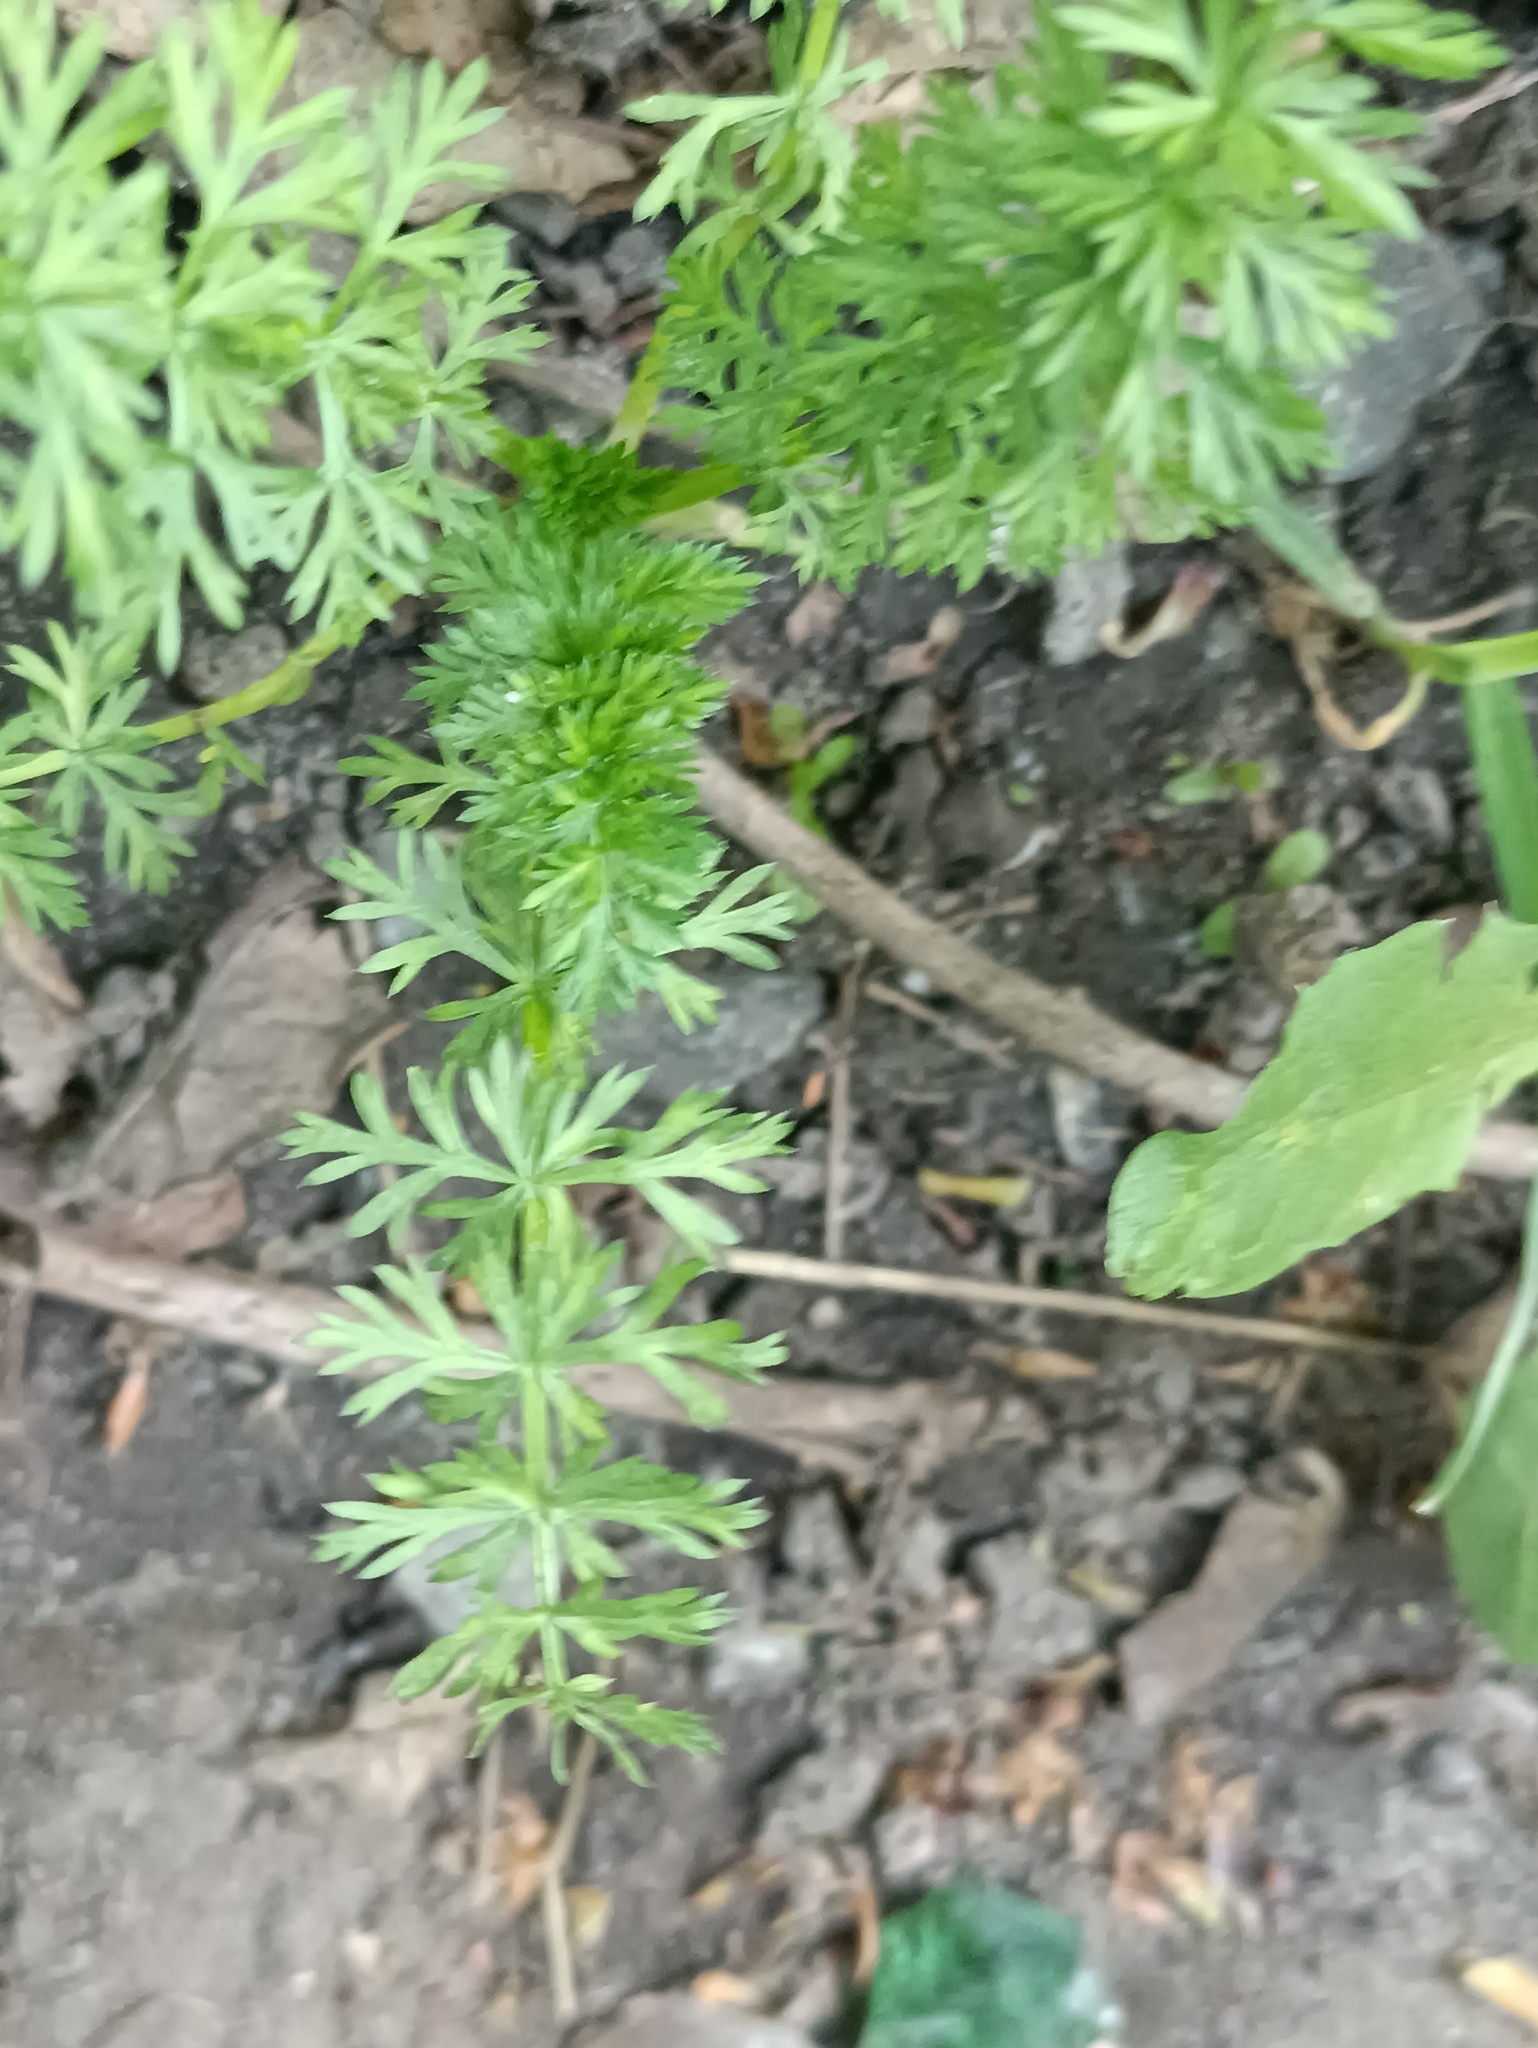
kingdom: Plantae
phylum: Tracheophyta
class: Magnoliopsida
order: Apiales
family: Apiaceae
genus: Carum
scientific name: Carum carvi
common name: Caraway
